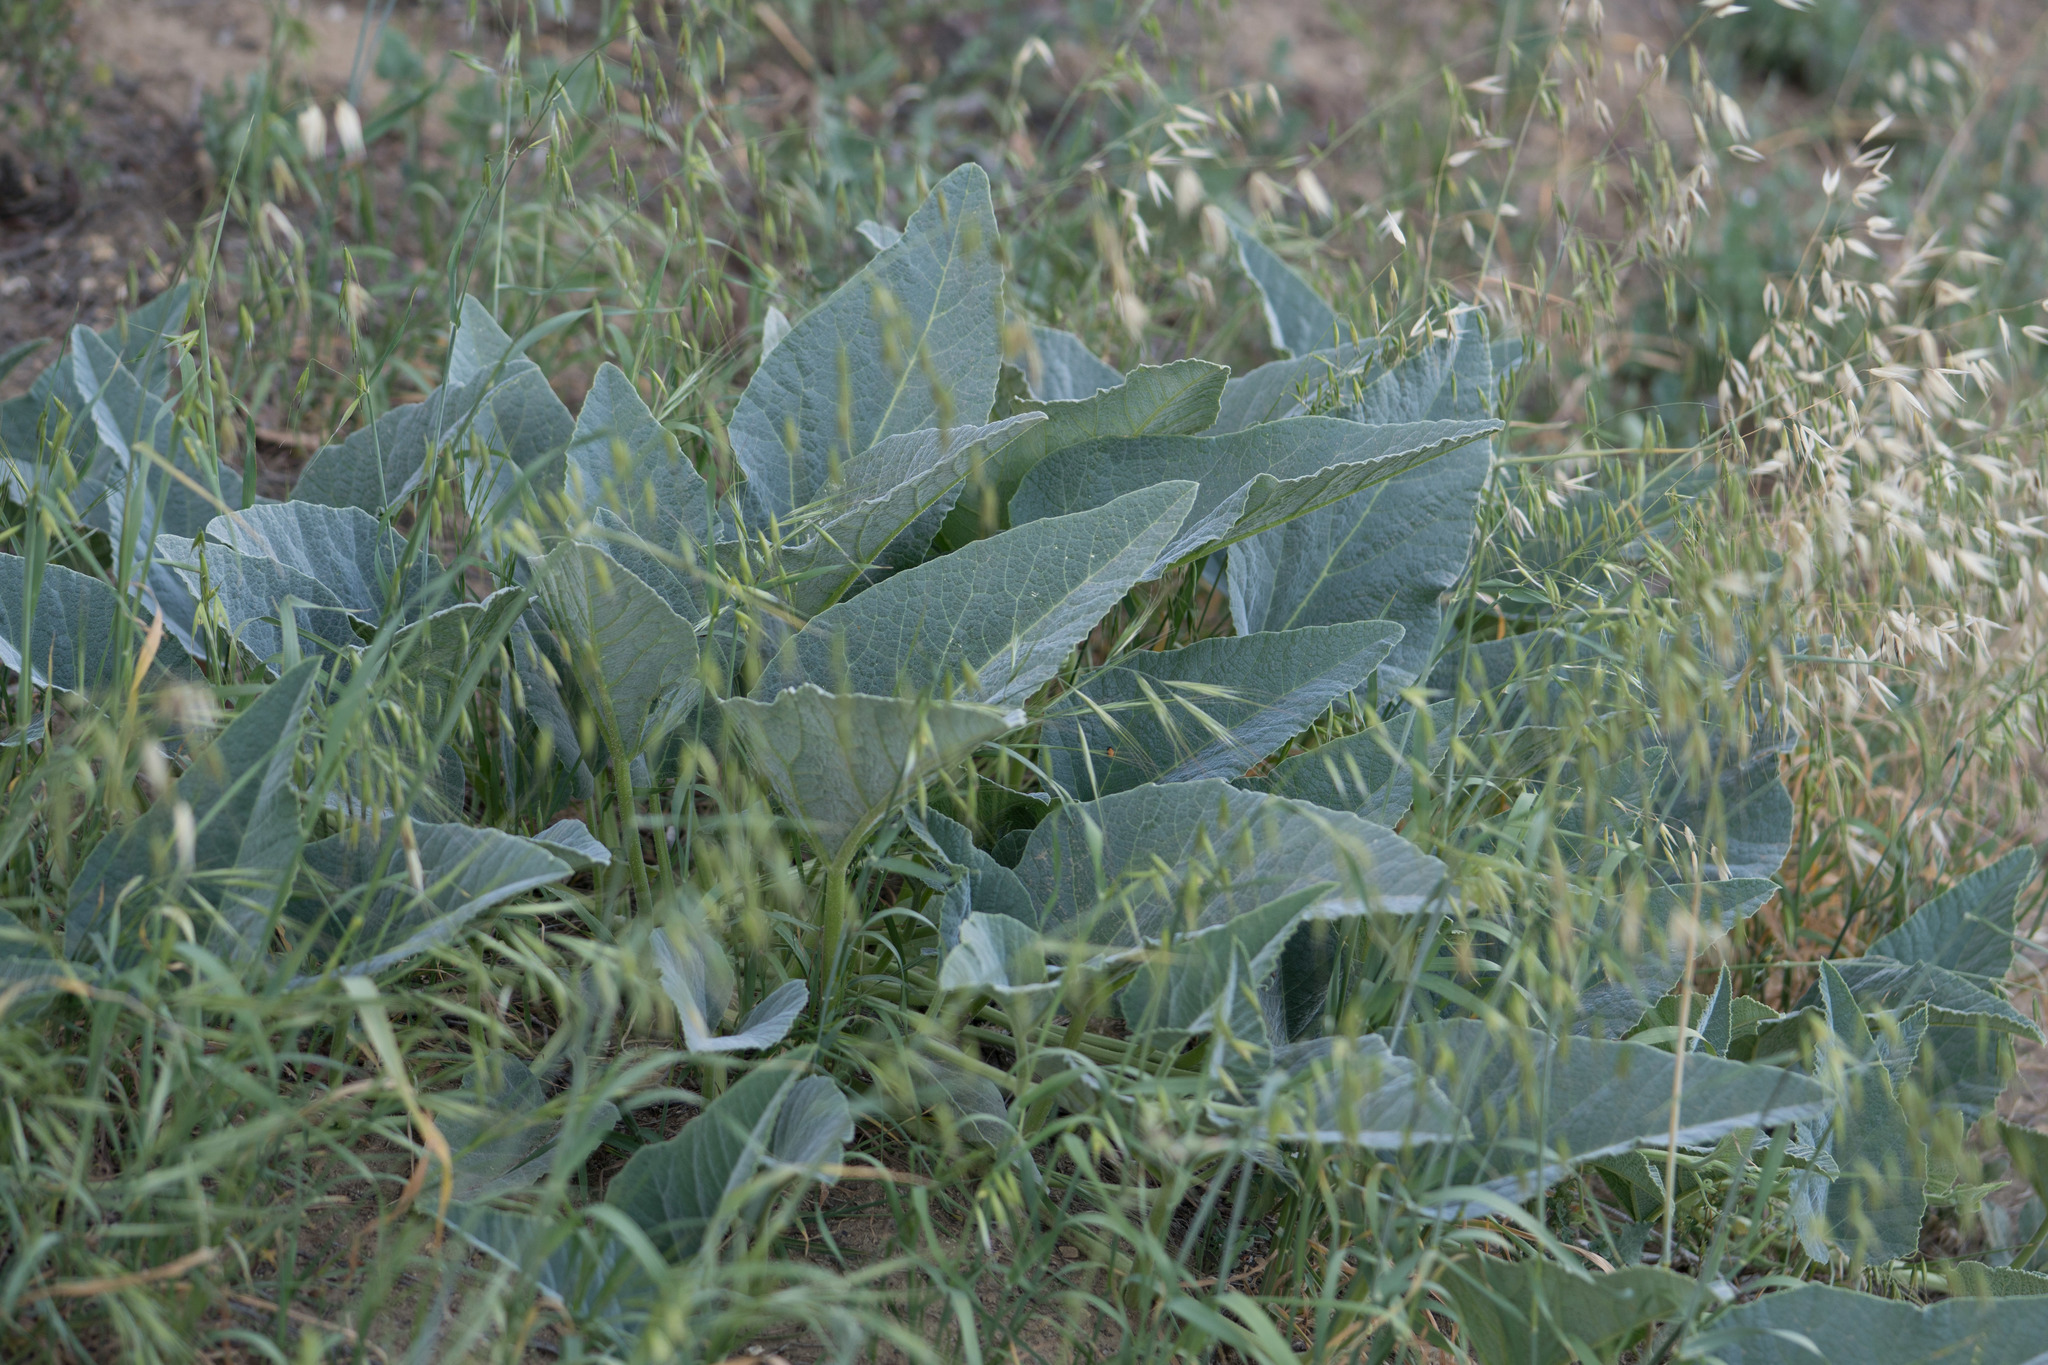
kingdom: Plantae
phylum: Tracheophyta
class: Magnoliopsida
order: Cucurbitales
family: Cucurbitaceae
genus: Cucurbita
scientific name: Cucurbita foetidissima
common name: Buffalo gourd
